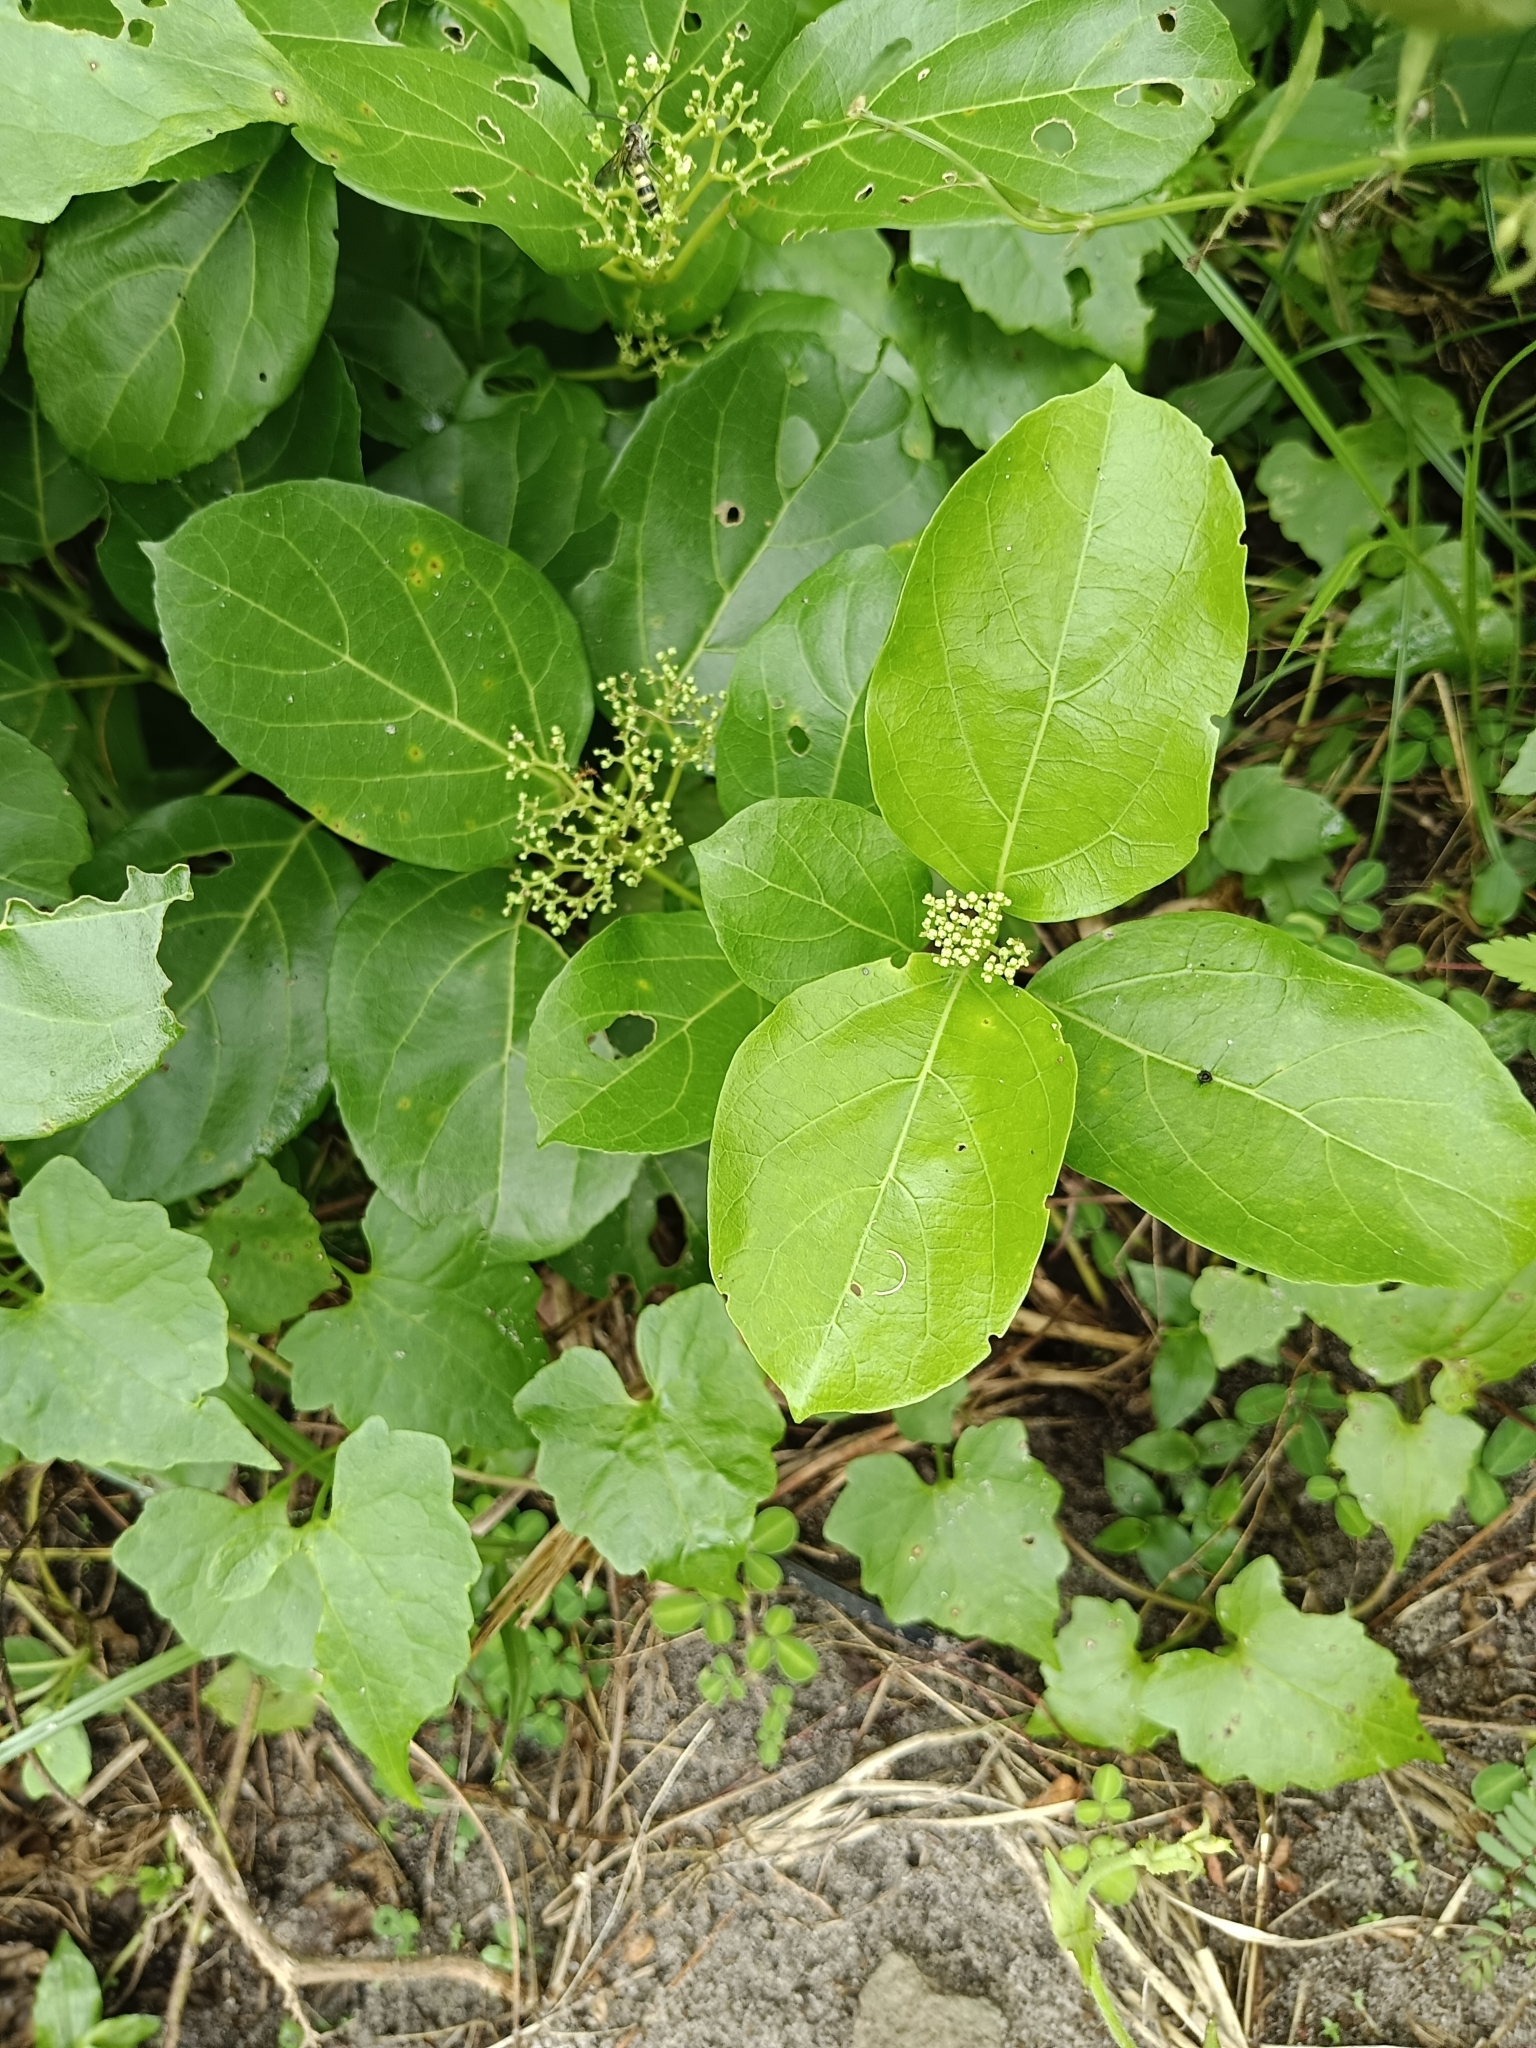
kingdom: Plantae
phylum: Tracheophyta
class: Magnoliopsida
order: Lamiales
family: Lamiaceae
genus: Premna
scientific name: Premna serratifolia
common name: Bastard guelder
